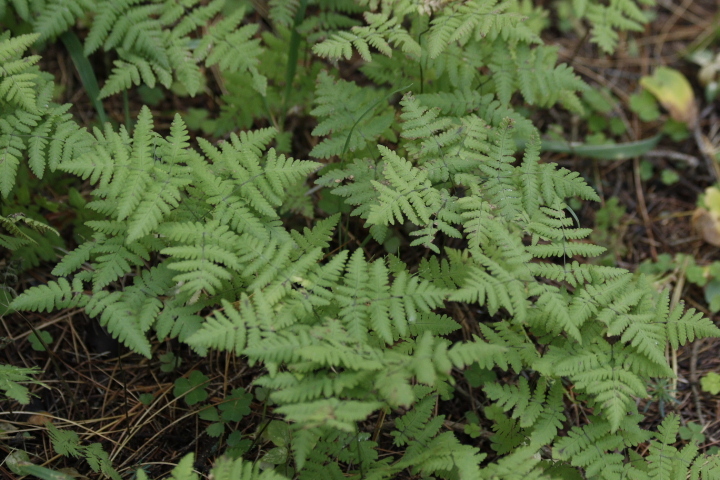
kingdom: Plantae
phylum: Tracheophyta
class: Polypodiopsida
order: Polypodiales
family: Cystopteridaceae
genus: Gymnocarpium
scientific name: Gymnocarpium dryopteris
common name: Oak fern
